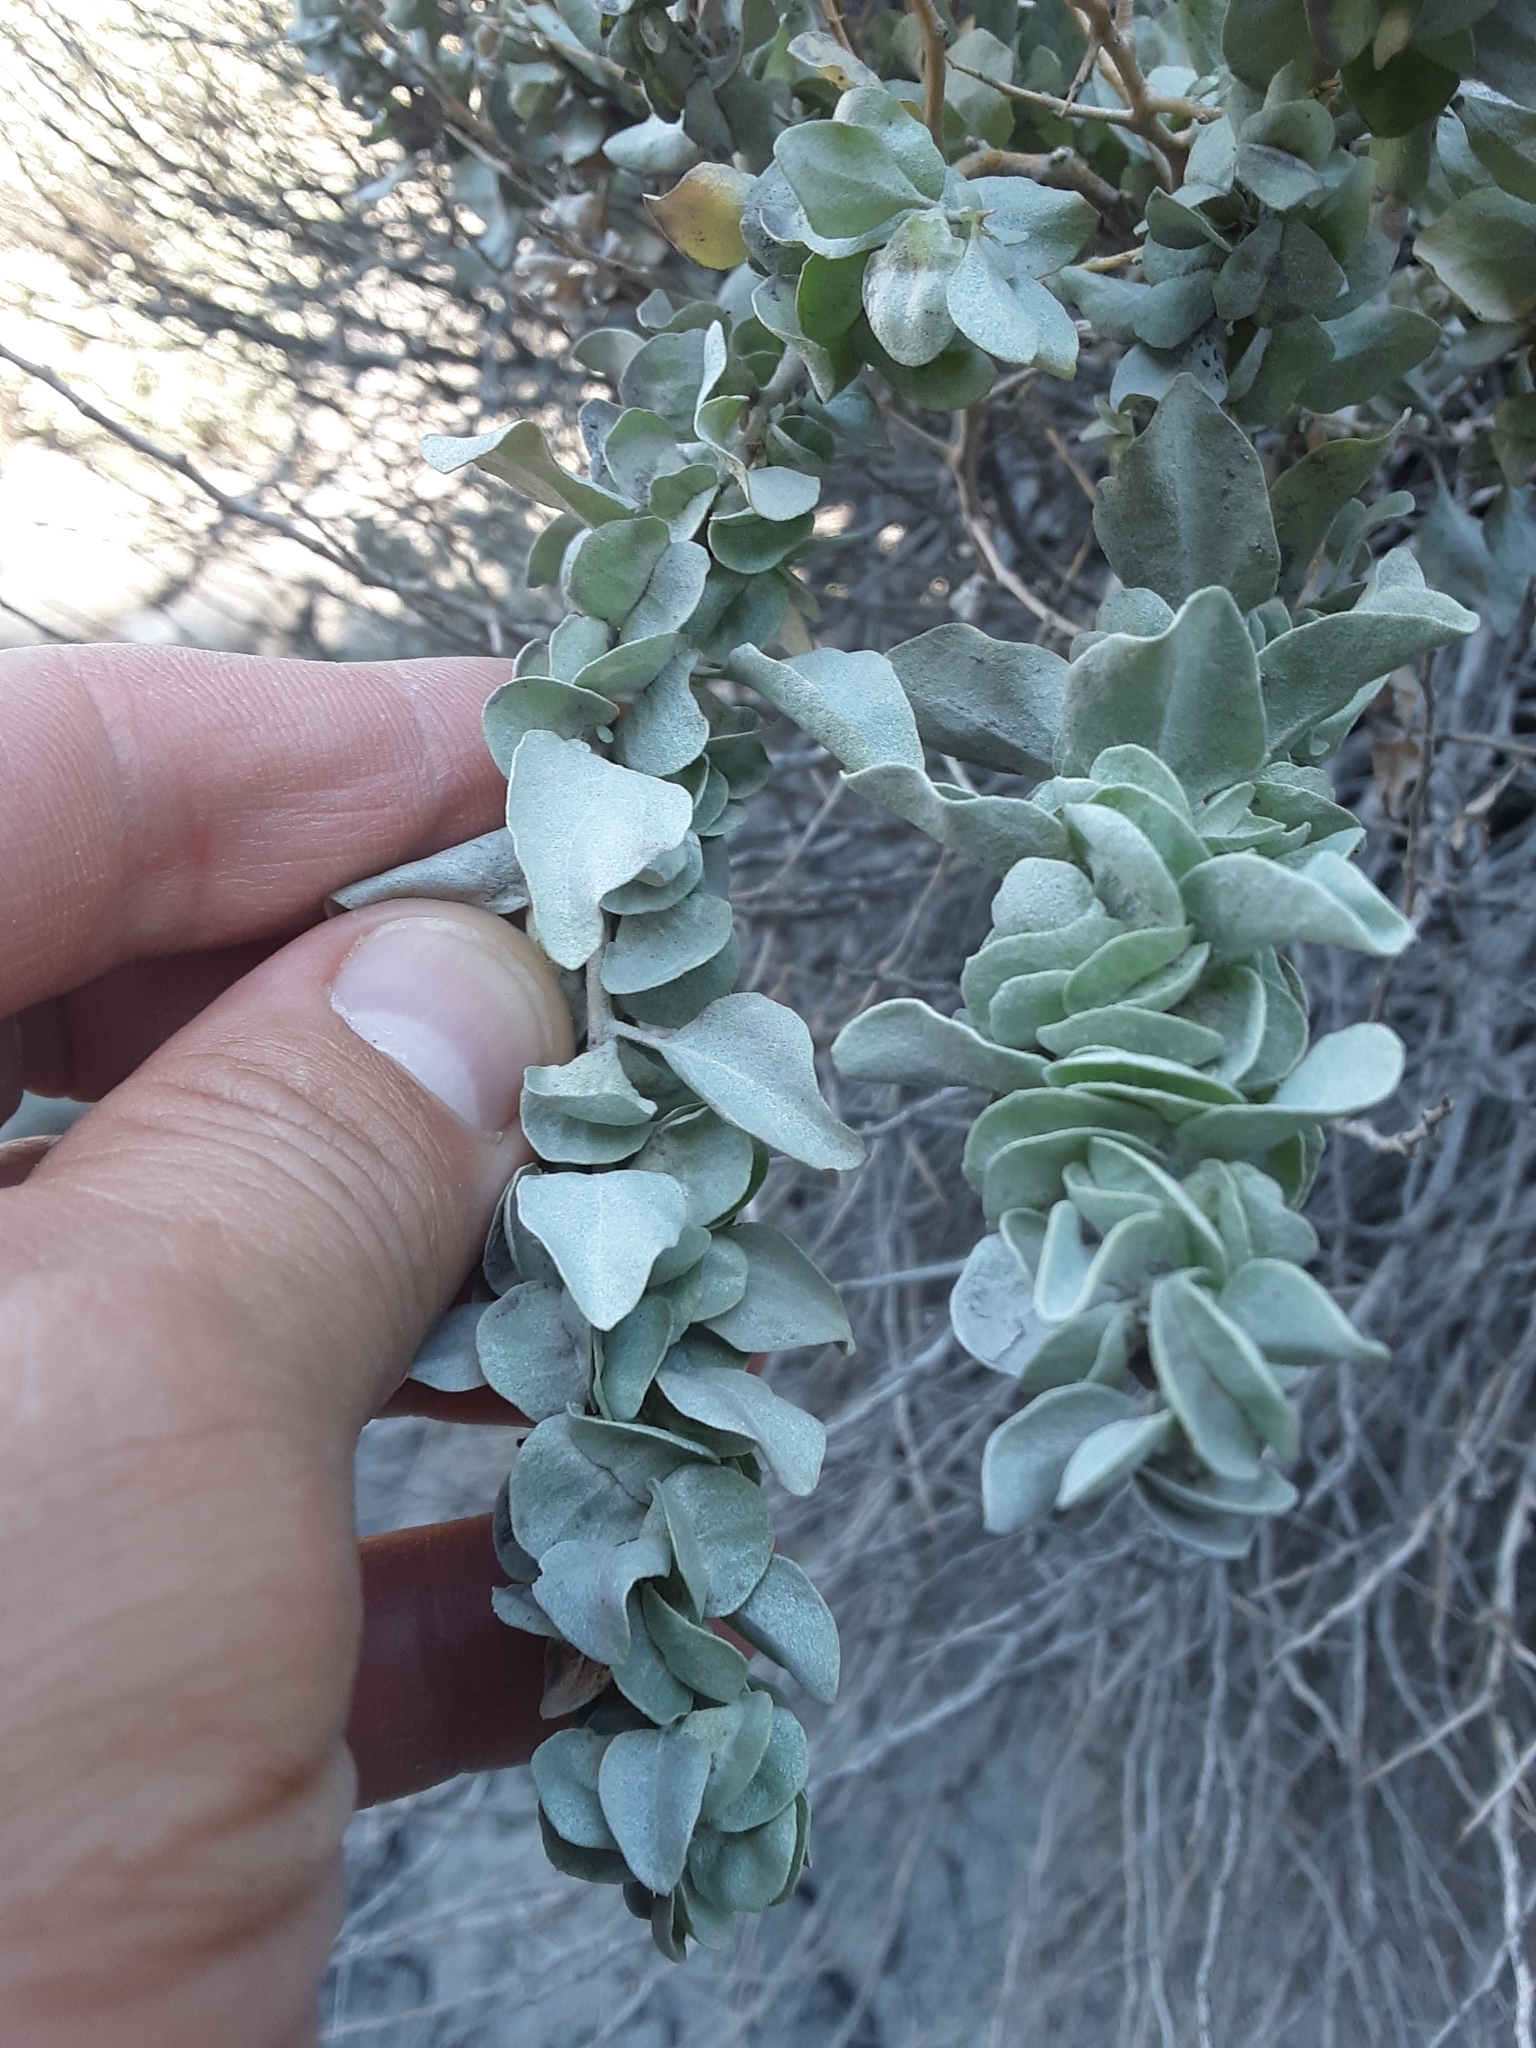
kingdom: Plantae
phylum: Tracheophyta
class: Magnoliopsida
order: Caryophyllales
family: Amaranthaceae
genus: Atriplex
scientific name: Atriplex confertifolia
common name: Shadscale
